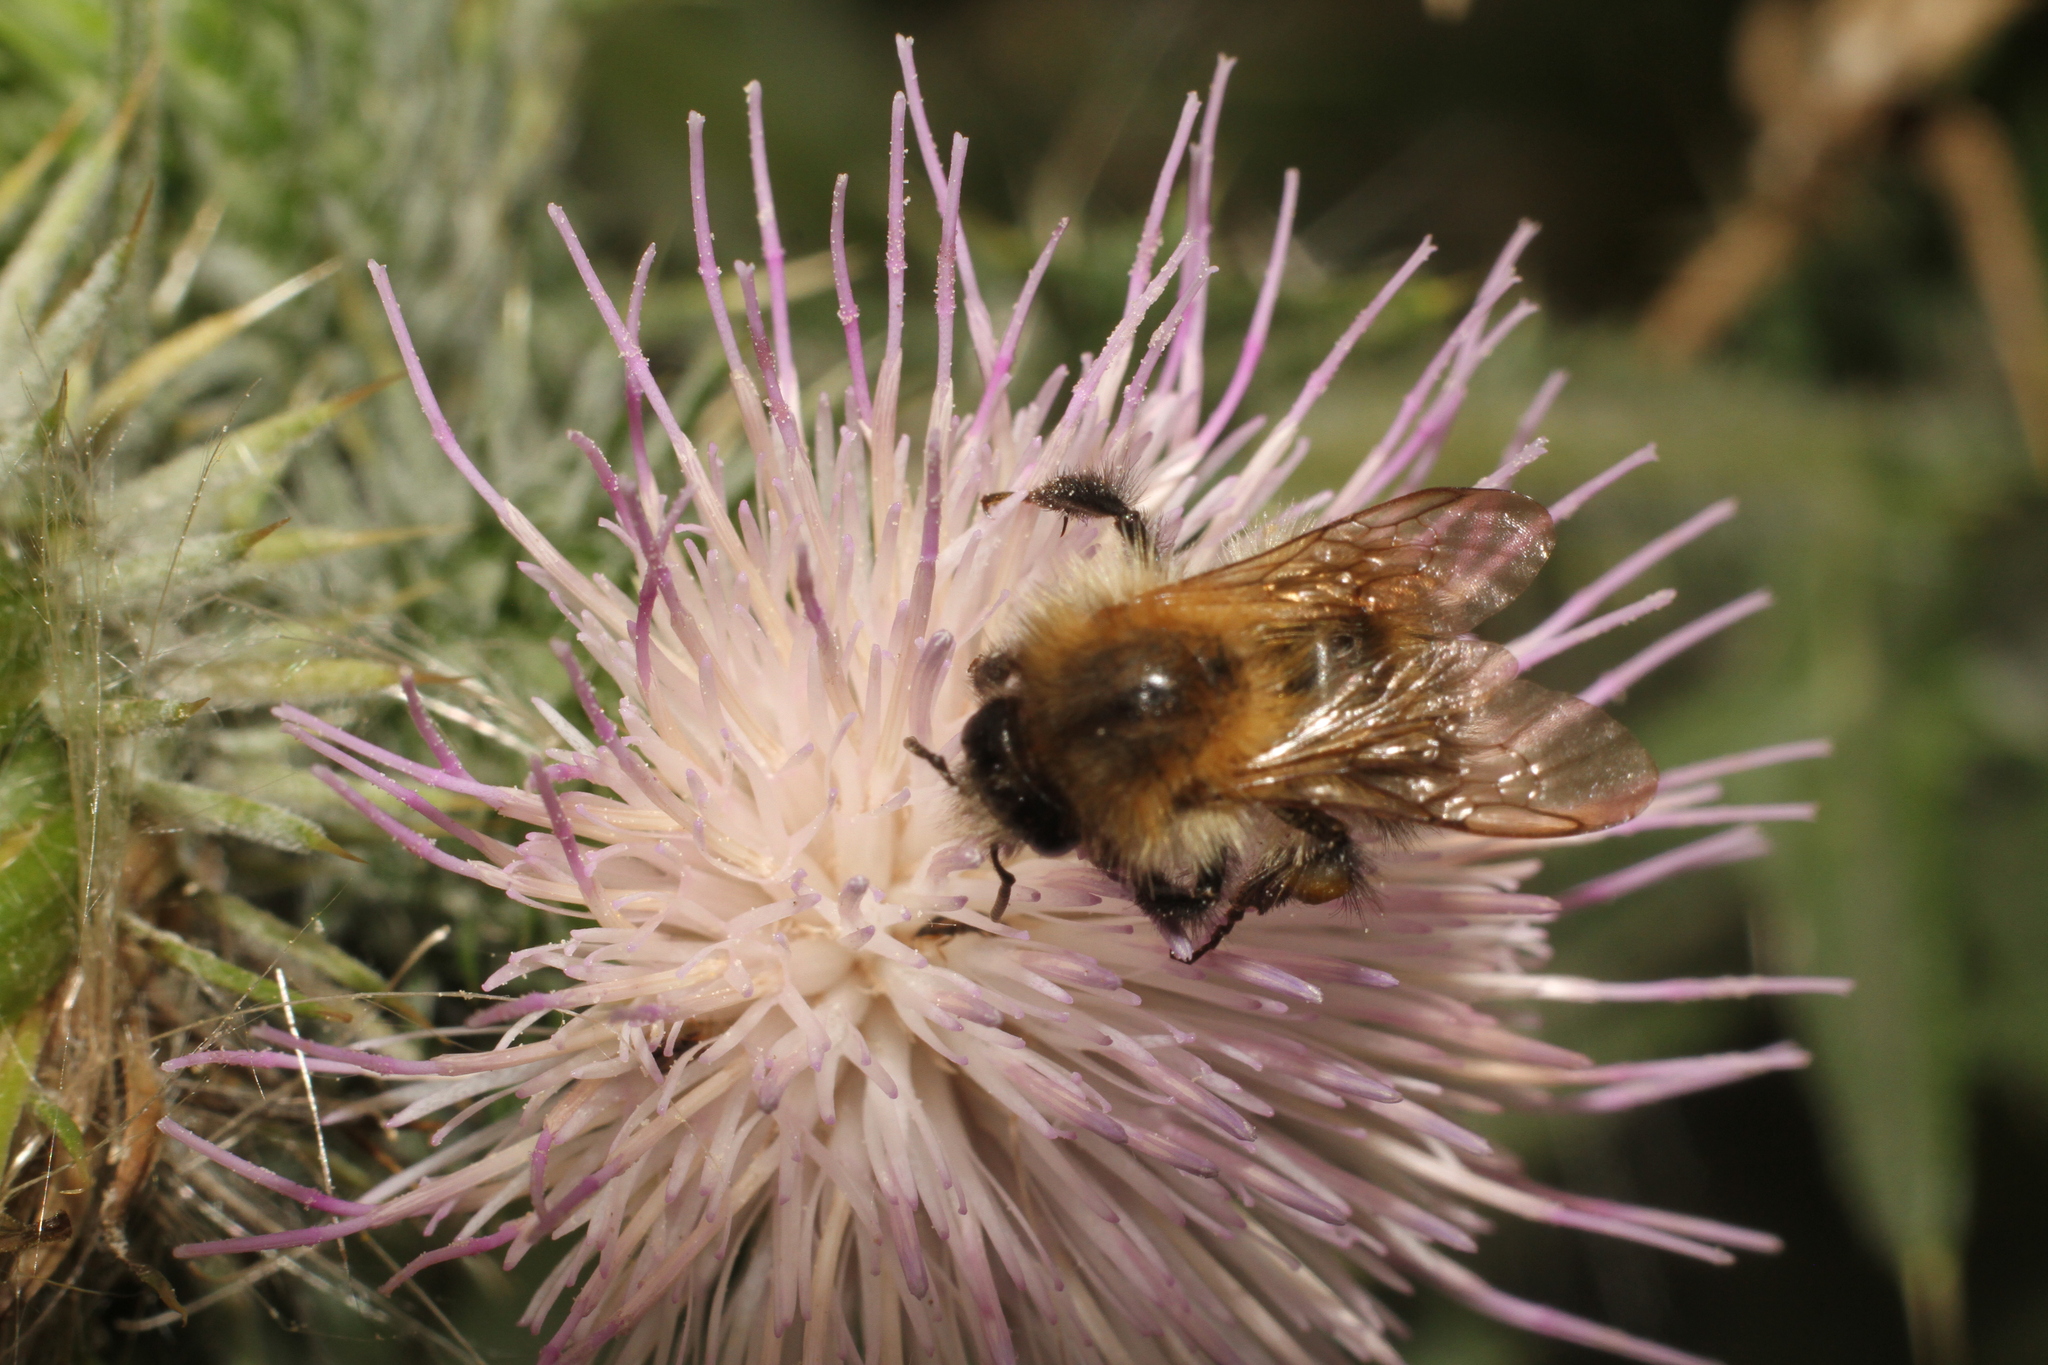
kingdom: Animalia
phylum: Arthropoda
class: Insecta
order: Hymenoptera
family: Apidae
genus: Bombus
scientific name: Bombus pascuorum
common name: Common carder bee
